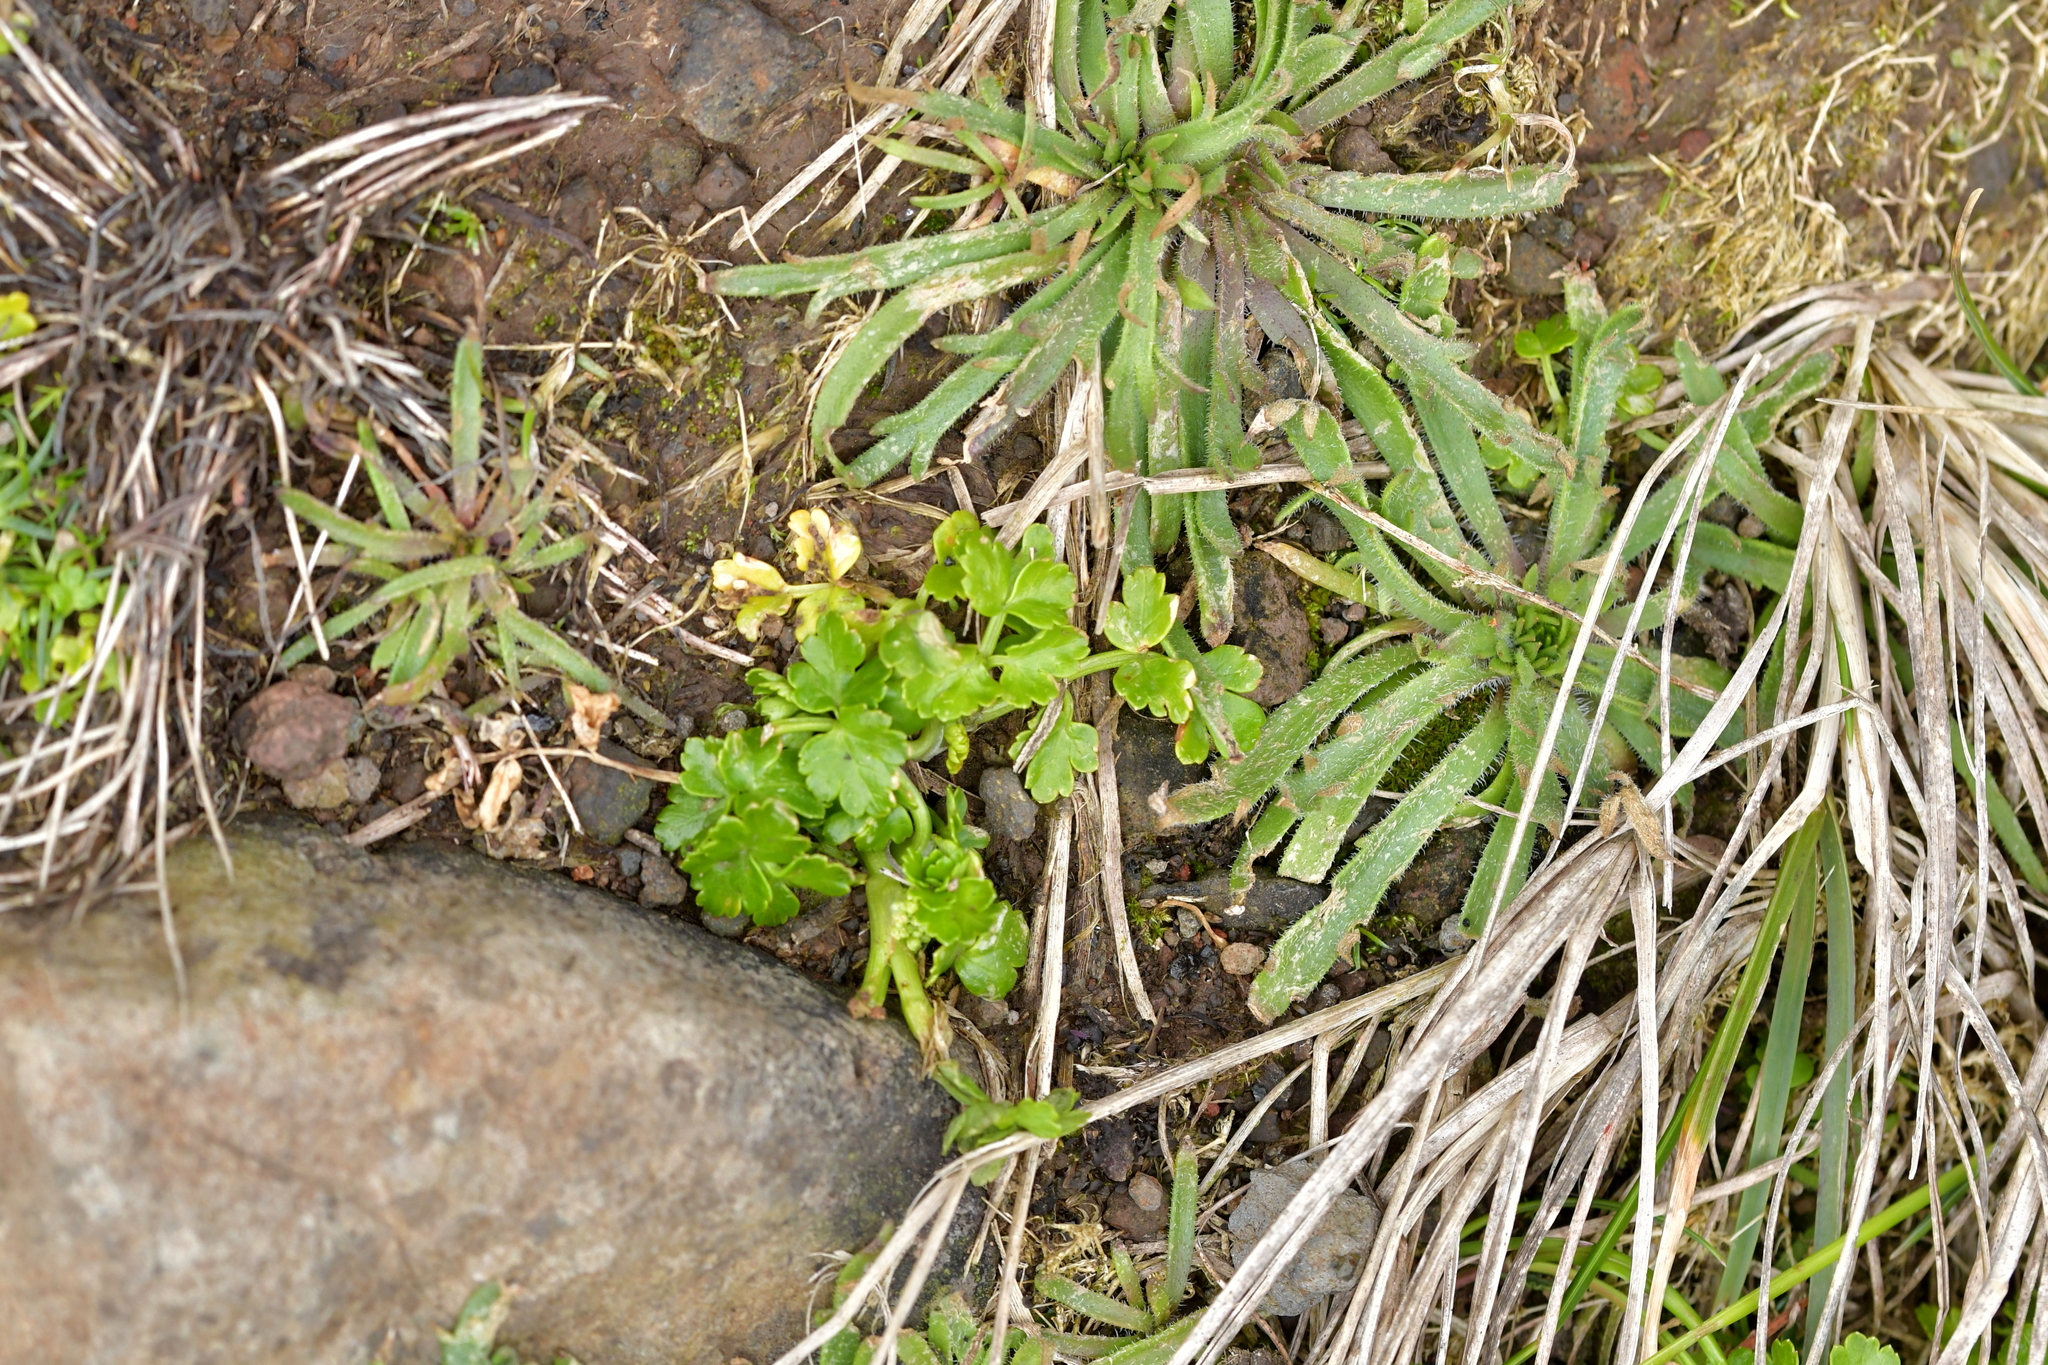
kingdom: Plantae
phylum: Tracheophyta
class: Magnoliopsida
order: Apiales
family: Apiaceae
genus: Apium
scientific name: Apium prostratum
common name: Prostrate marshwort
